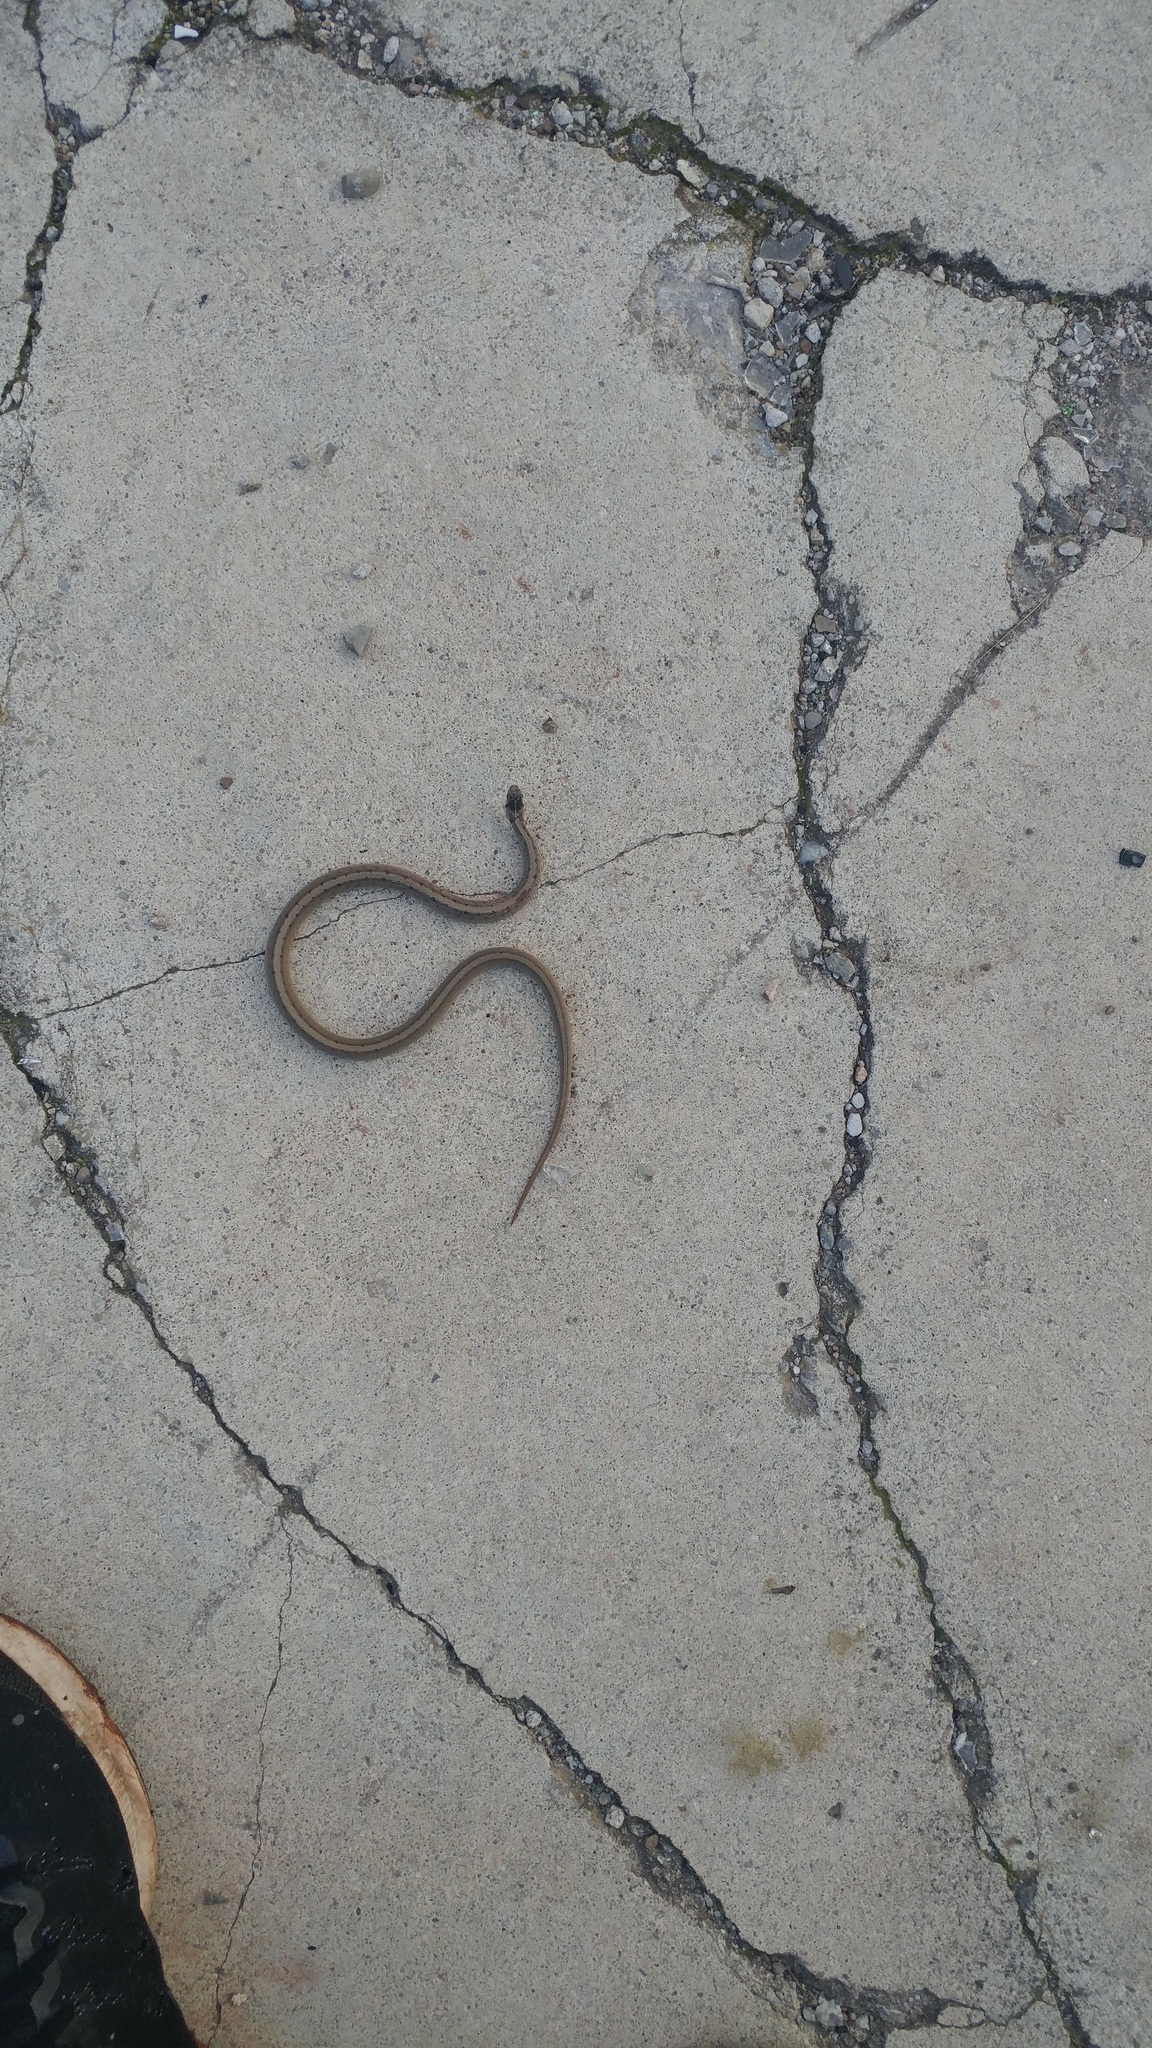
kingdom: Animalia
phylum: Chordata
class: Squamata
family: Colubridae
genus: Storeria
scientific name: Storeria dekayi
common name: (dekay’s) brown snake
